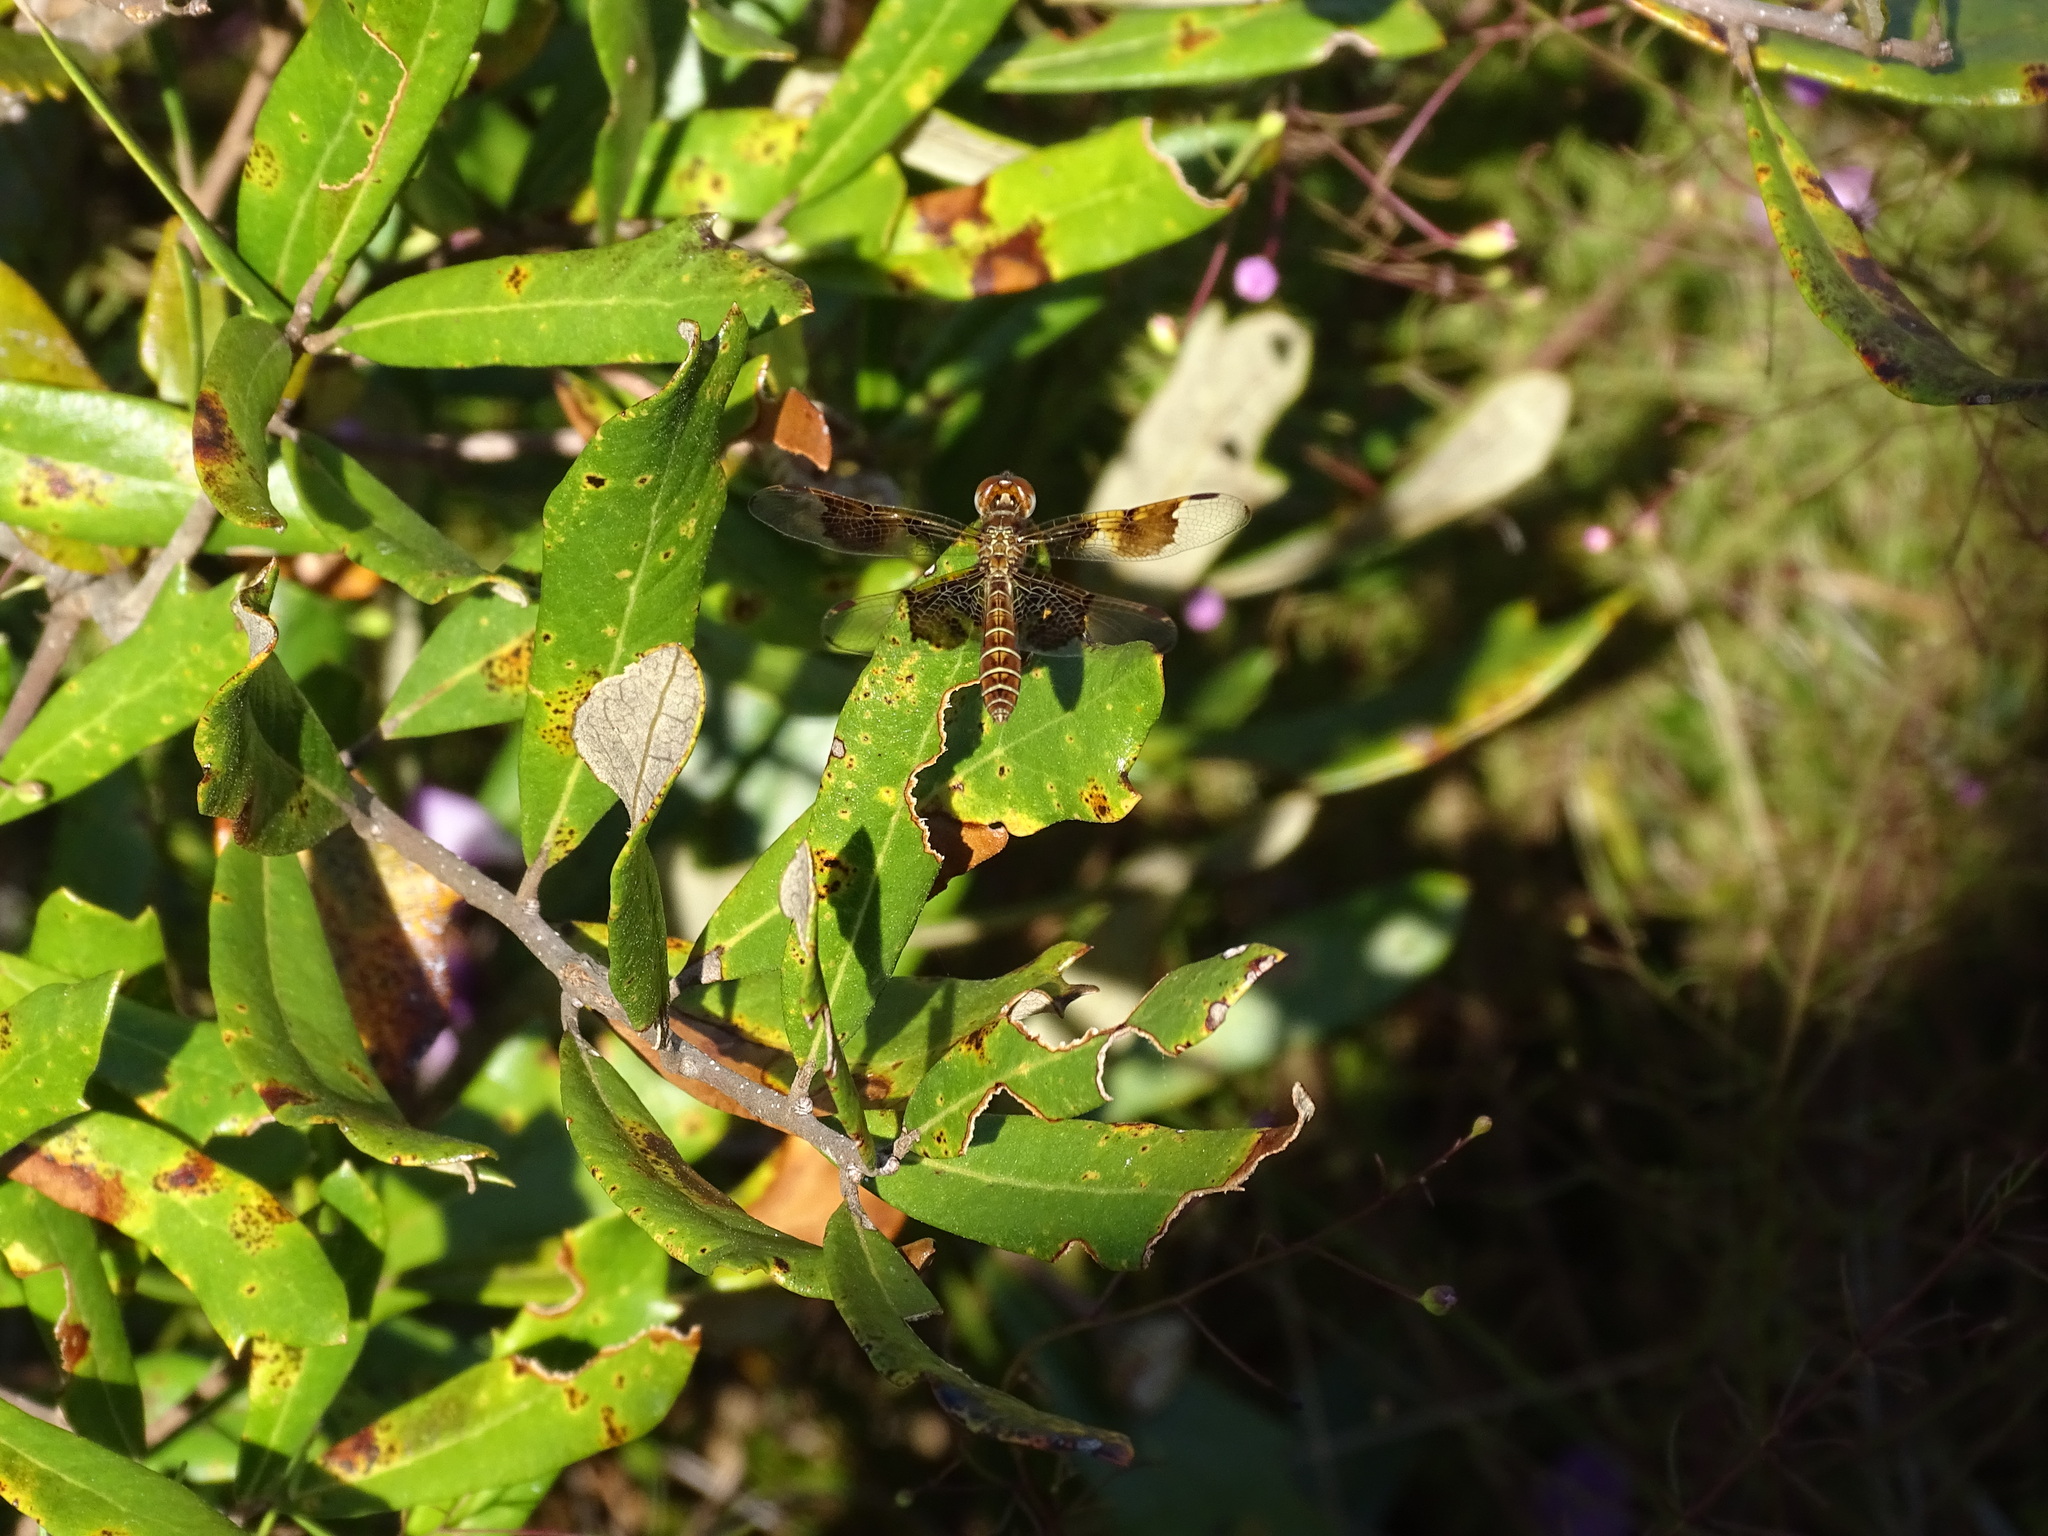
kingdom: Animalia
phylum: Arthropoda
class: Insecta
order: Odonata
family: Libellulidae
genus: Perithemis
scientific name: Perithemis tenera
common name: Eastern amberwing
